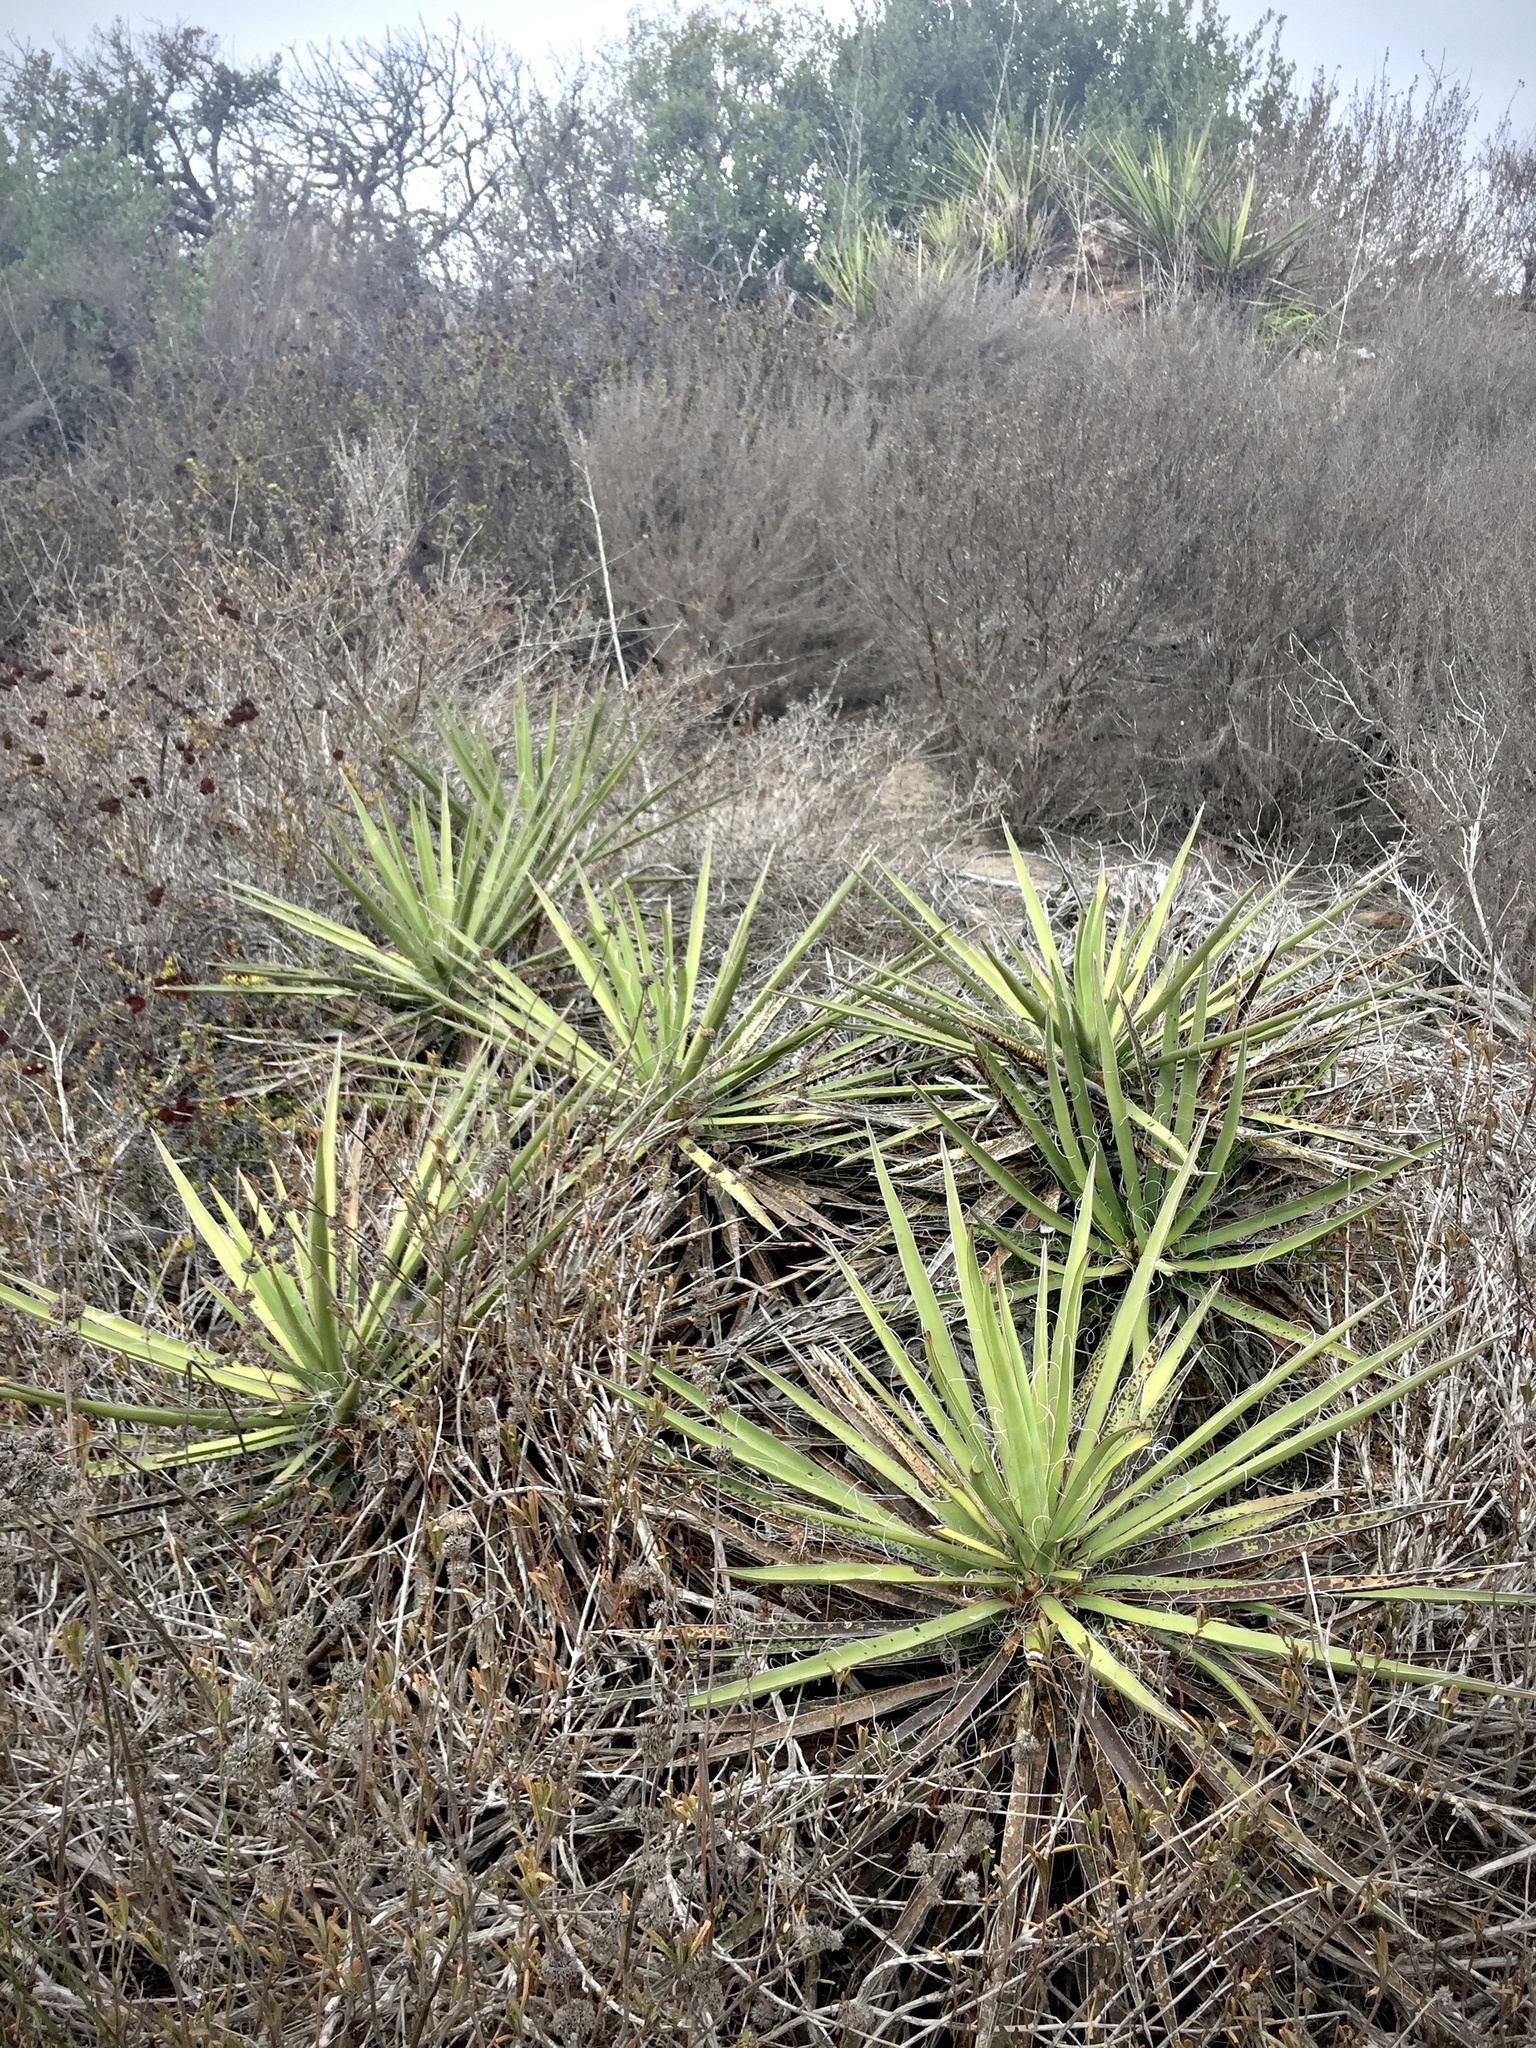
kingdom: Plantae
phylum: Tracheophyta
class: Liliopsida
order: Asparagales
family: Asparagaceae
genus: Yucca
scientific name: Yucca schidigera
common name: Mojave yucca
